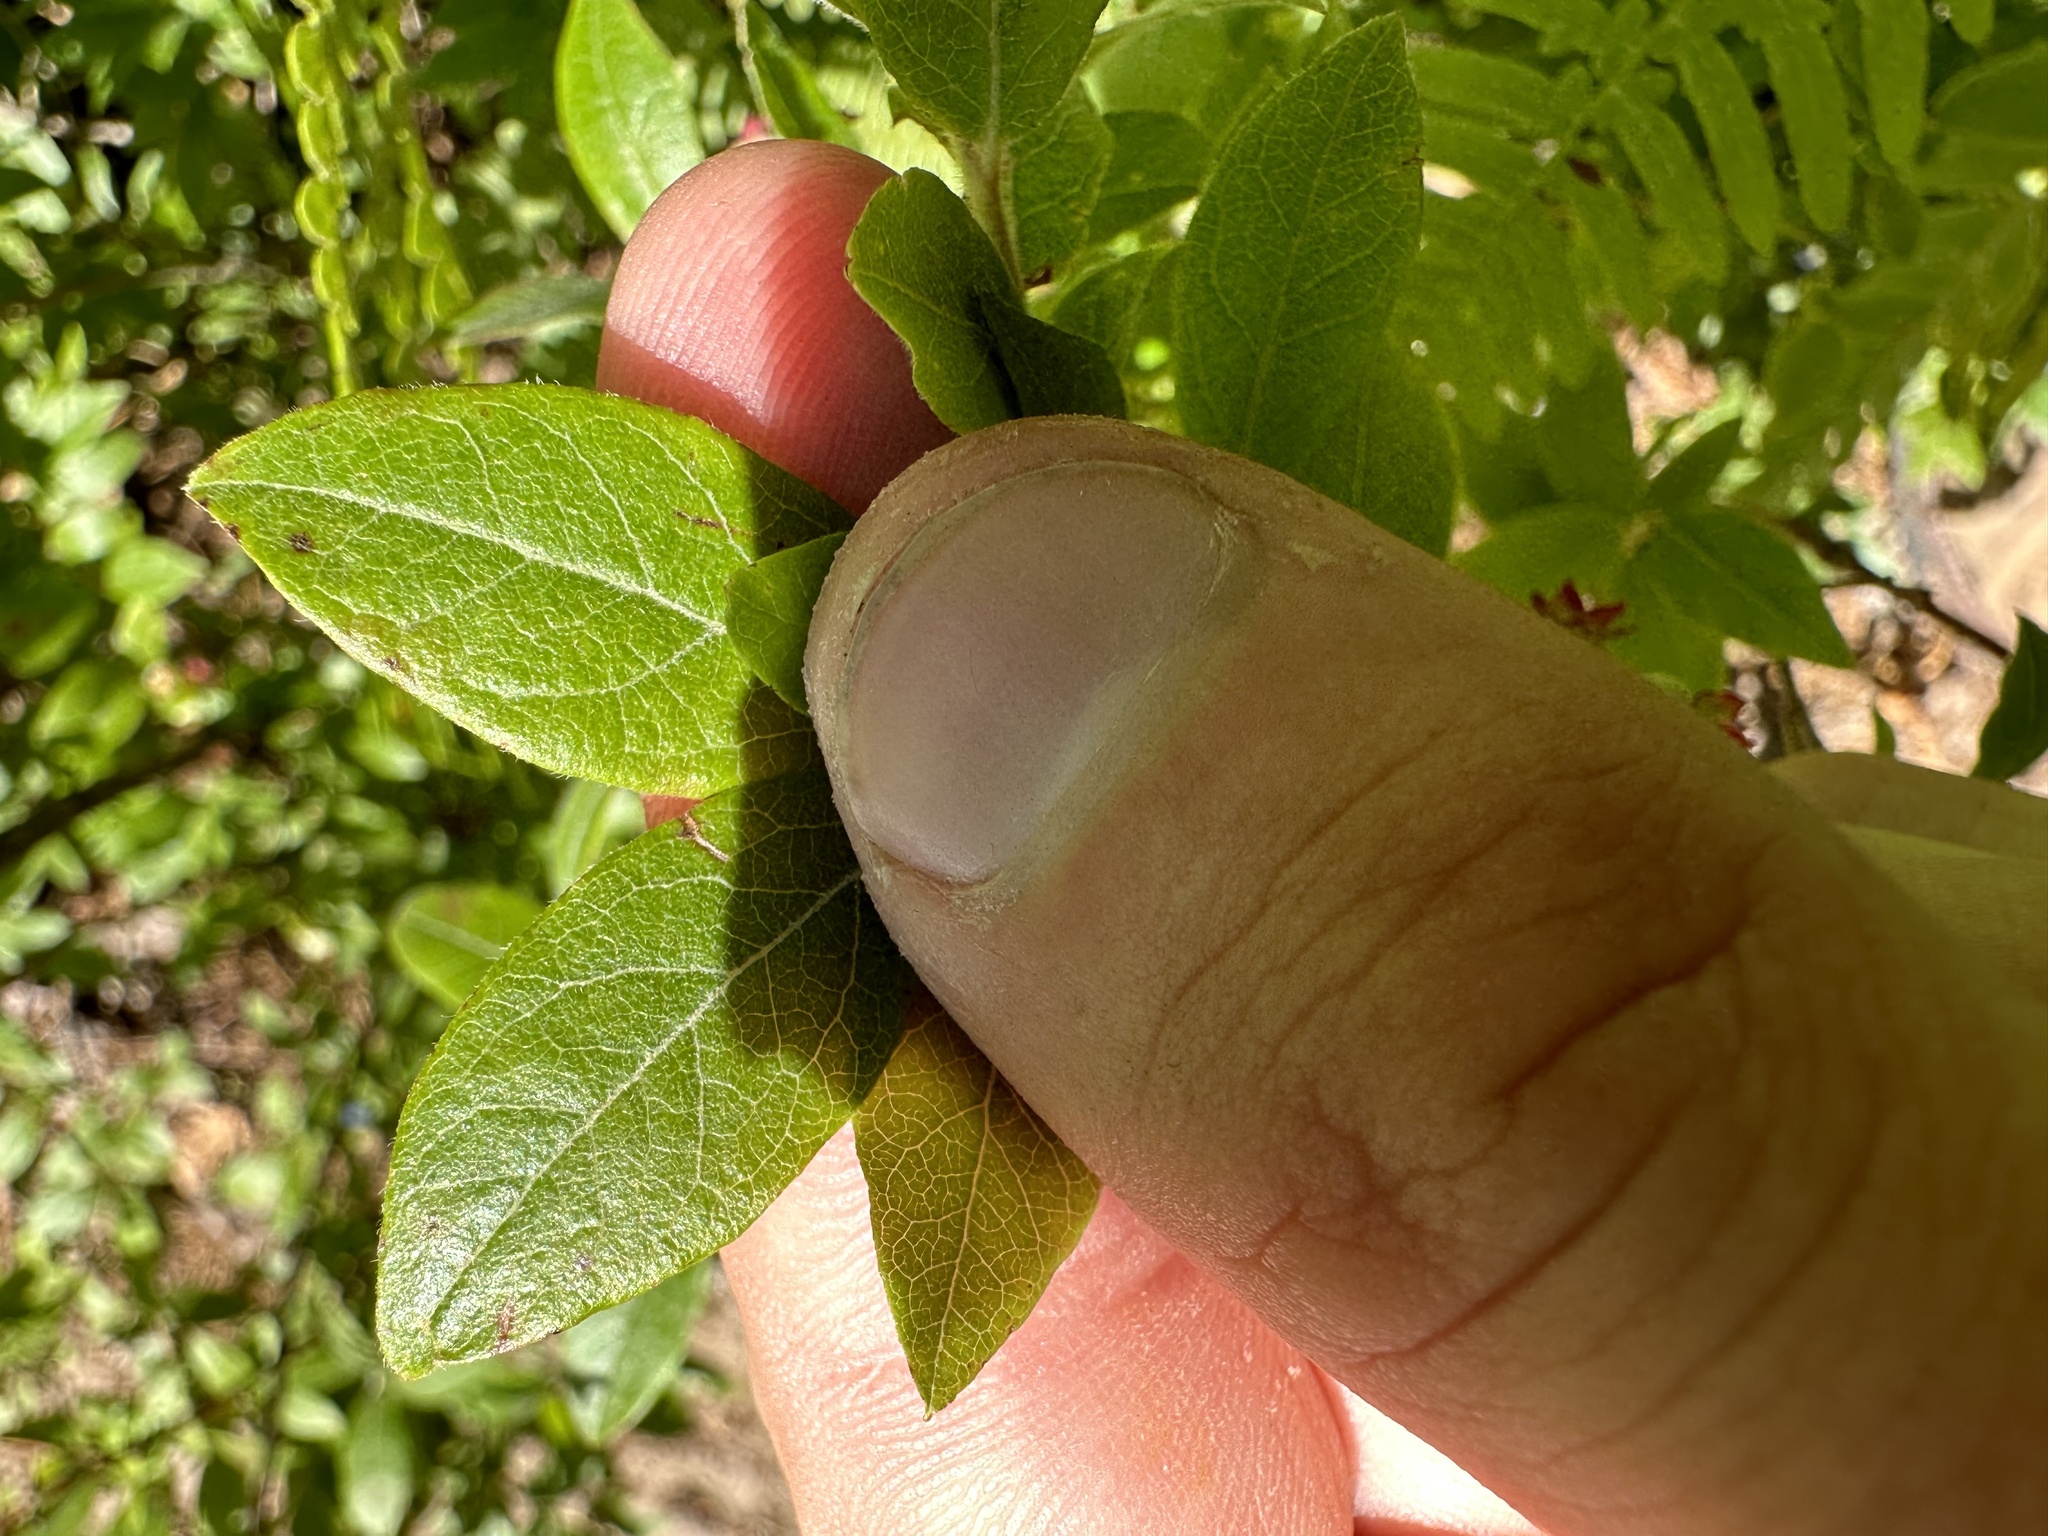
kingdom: Plantae
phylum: Tracheophyta
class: Magnoliopsida
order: Ericales
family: Ericaceae
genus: Vaccinium
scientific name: Vaccinium myrtilloides
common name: Canada blueberry
